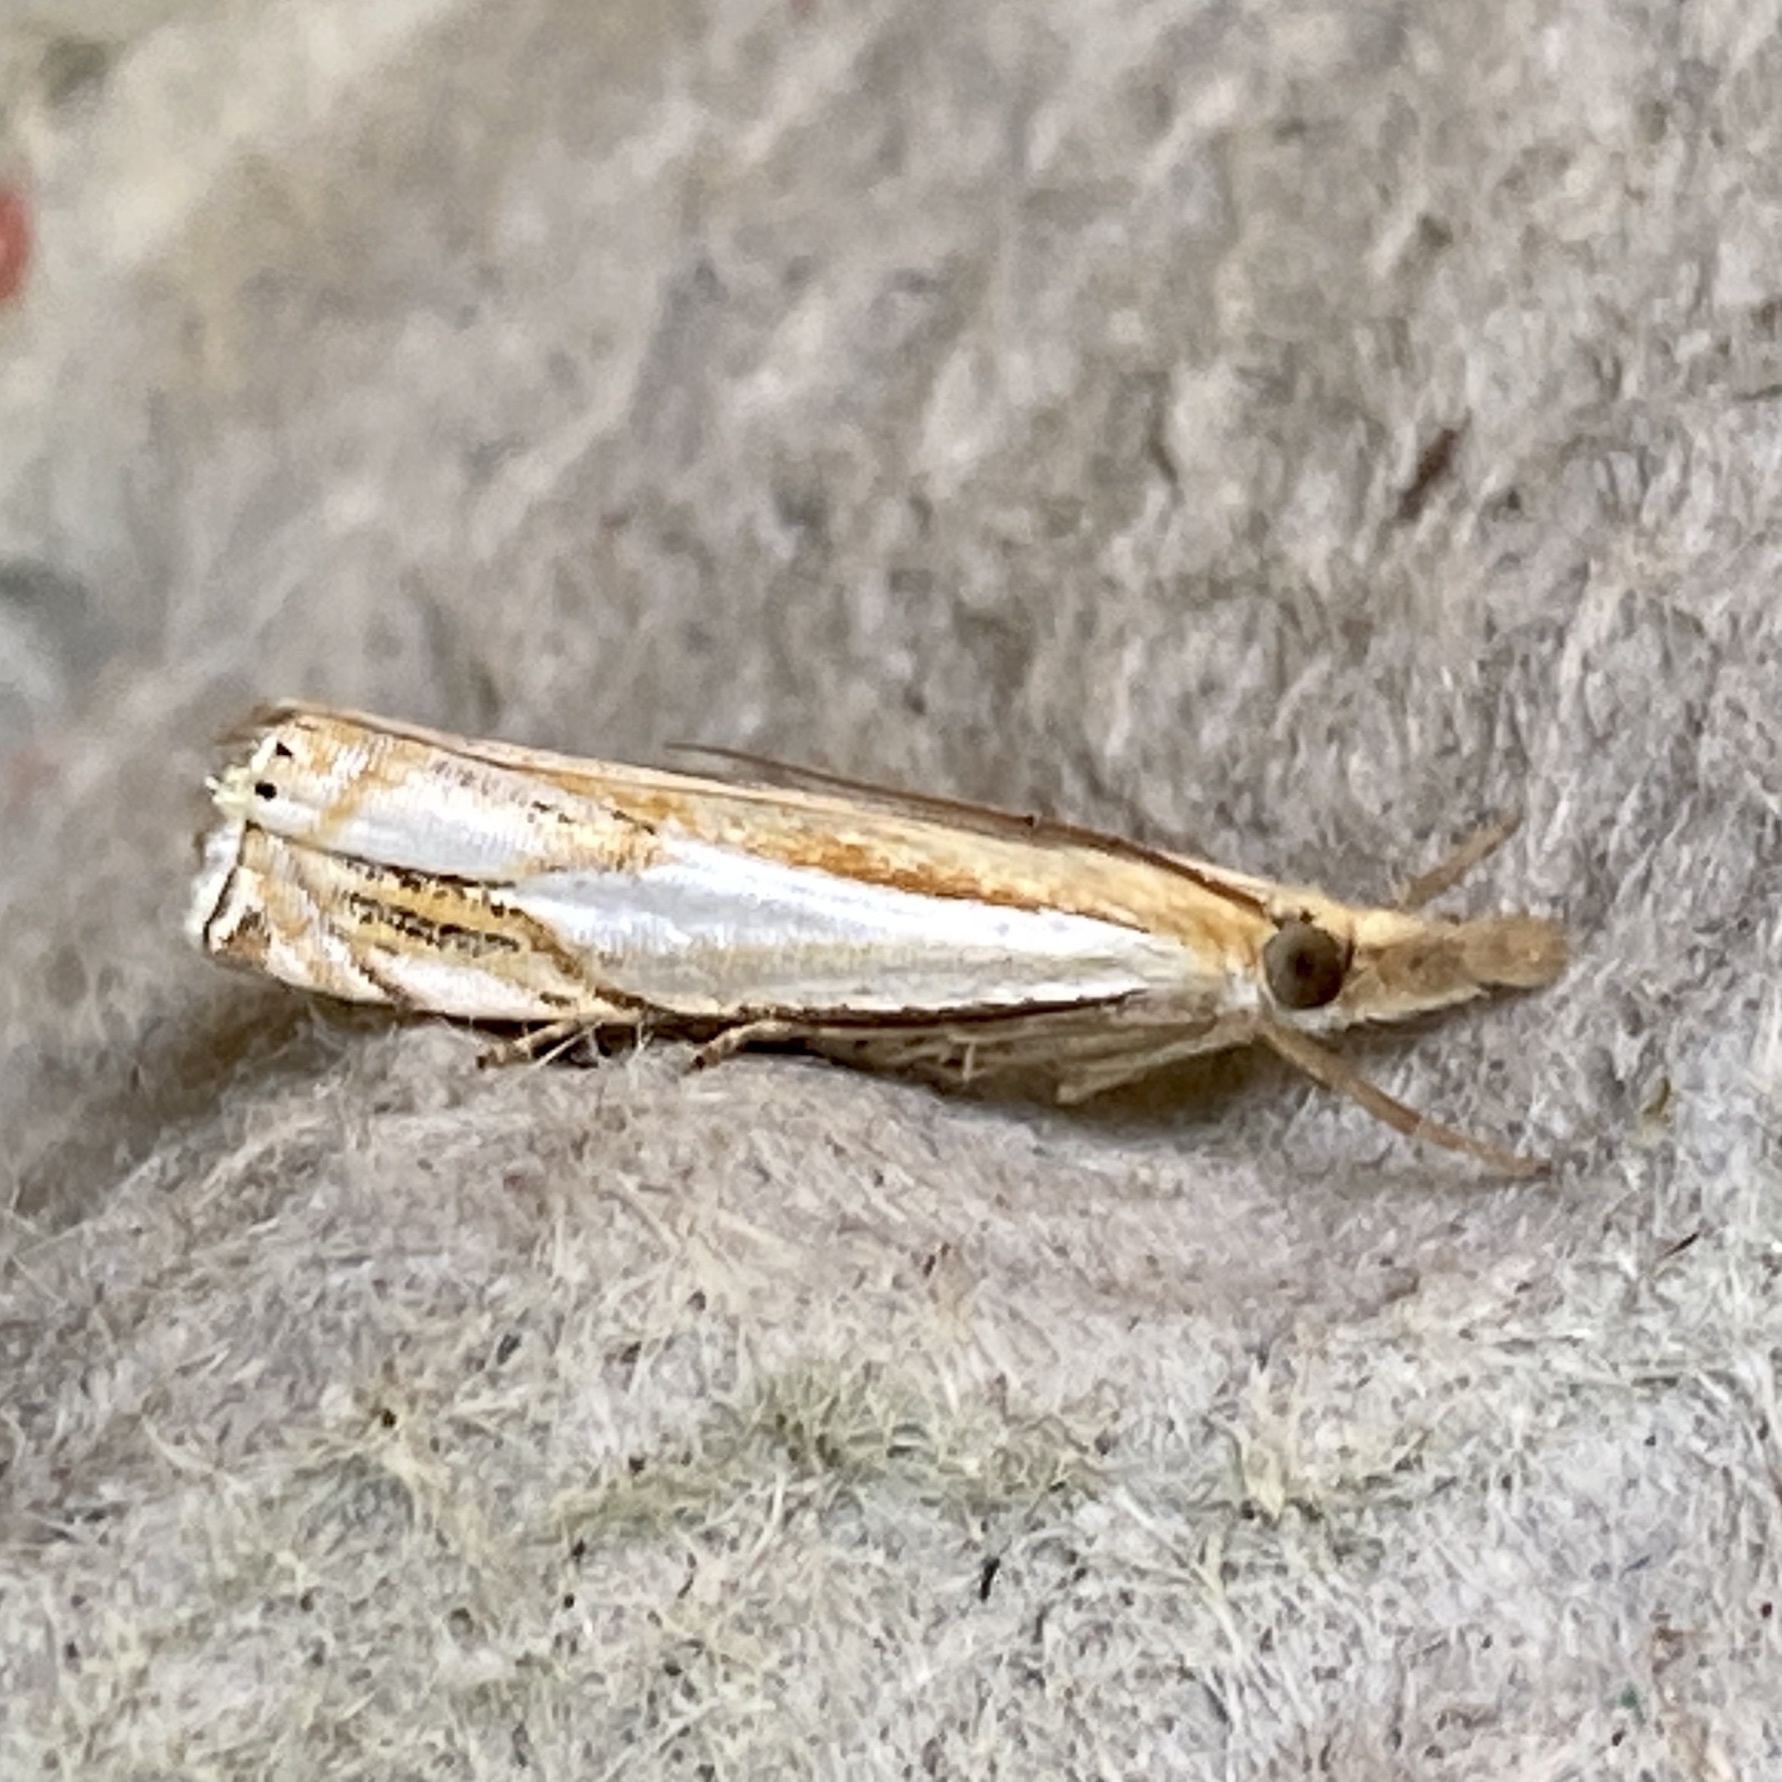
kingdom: Animalia
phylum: Arthropoda
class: Insecta
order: Lepidoptera
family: Crambidae
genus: Crambus
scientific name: Crambus agitatellus
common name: Double-banded grass-veneer
